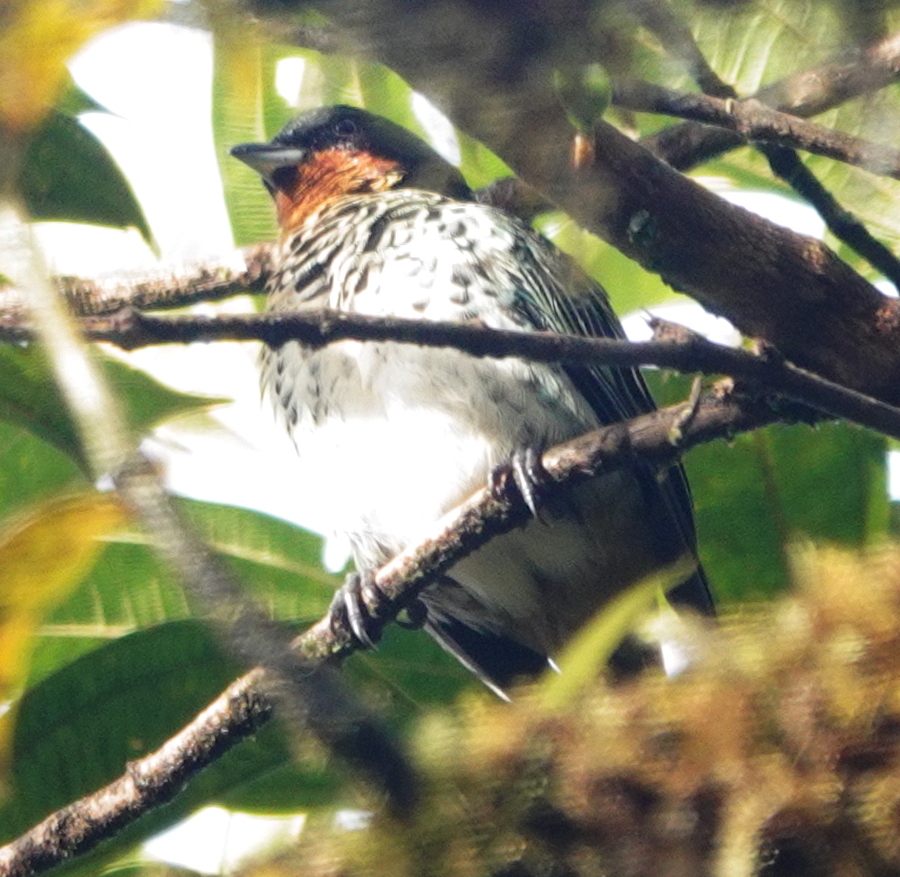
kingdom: Animalia
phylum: Chordata
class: Aves
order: Passeriformes
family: Thraupidae
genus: Ixothraupis
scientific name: Ixothraupis rufigula
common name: Rufous-throated tanager
